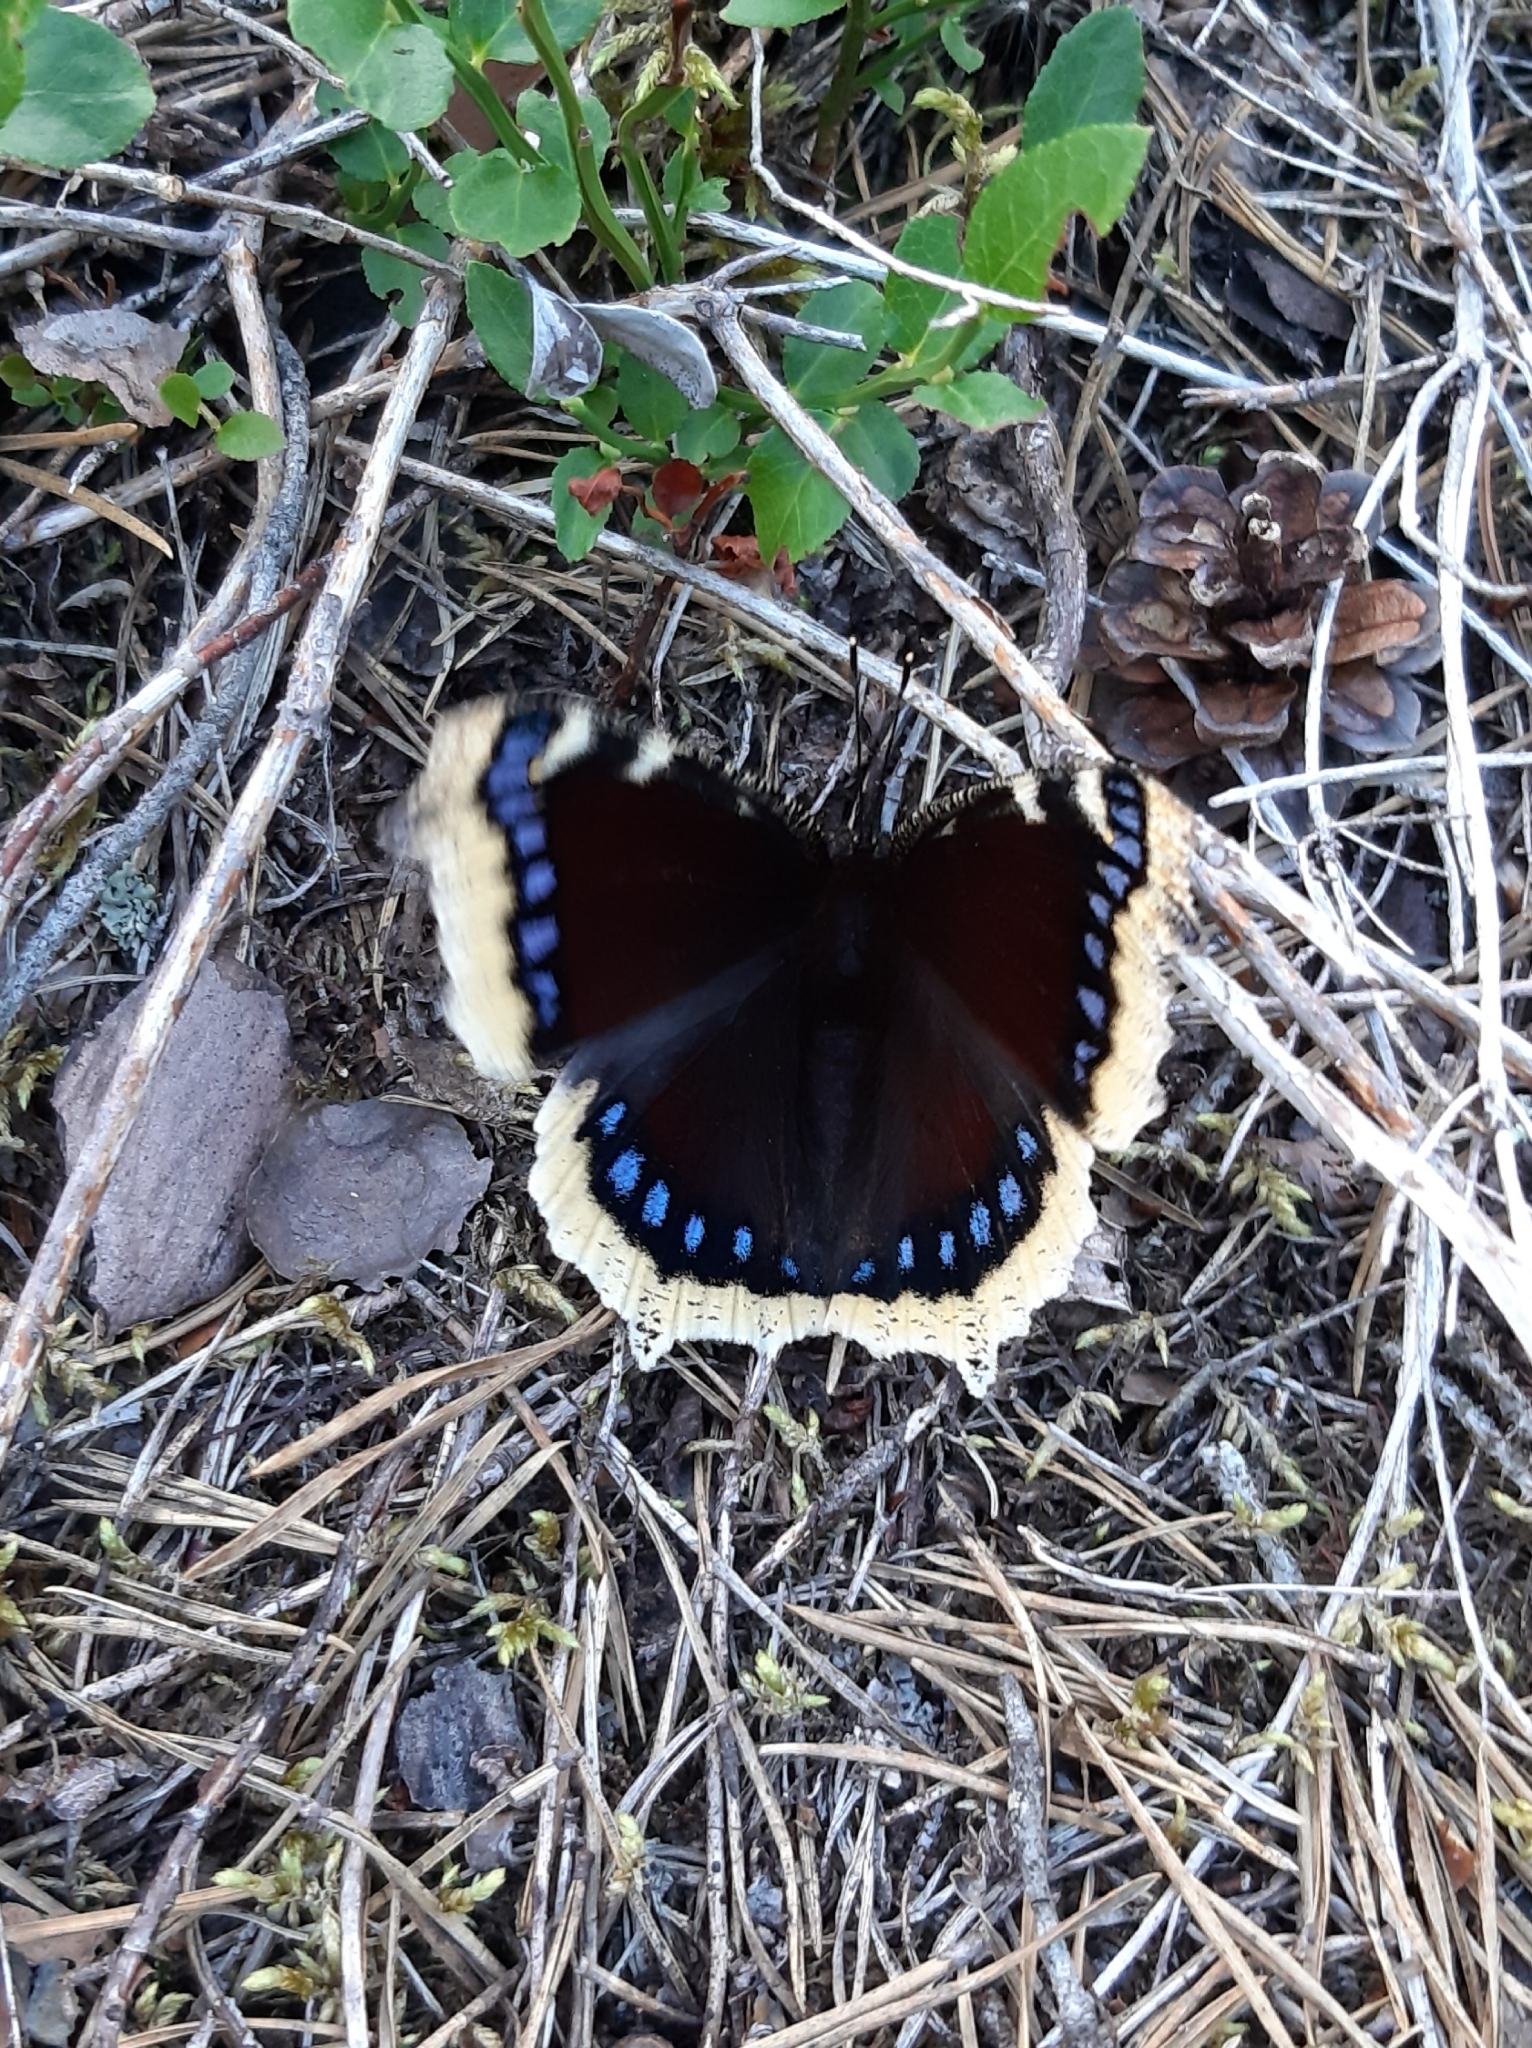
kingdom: Animalia
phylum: Arthropoda
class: Insecta
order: Lepidoptera
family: Nymphalidae
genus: Nymphalis
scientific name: Nymphalis antiopa
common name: Camberwell beauty
